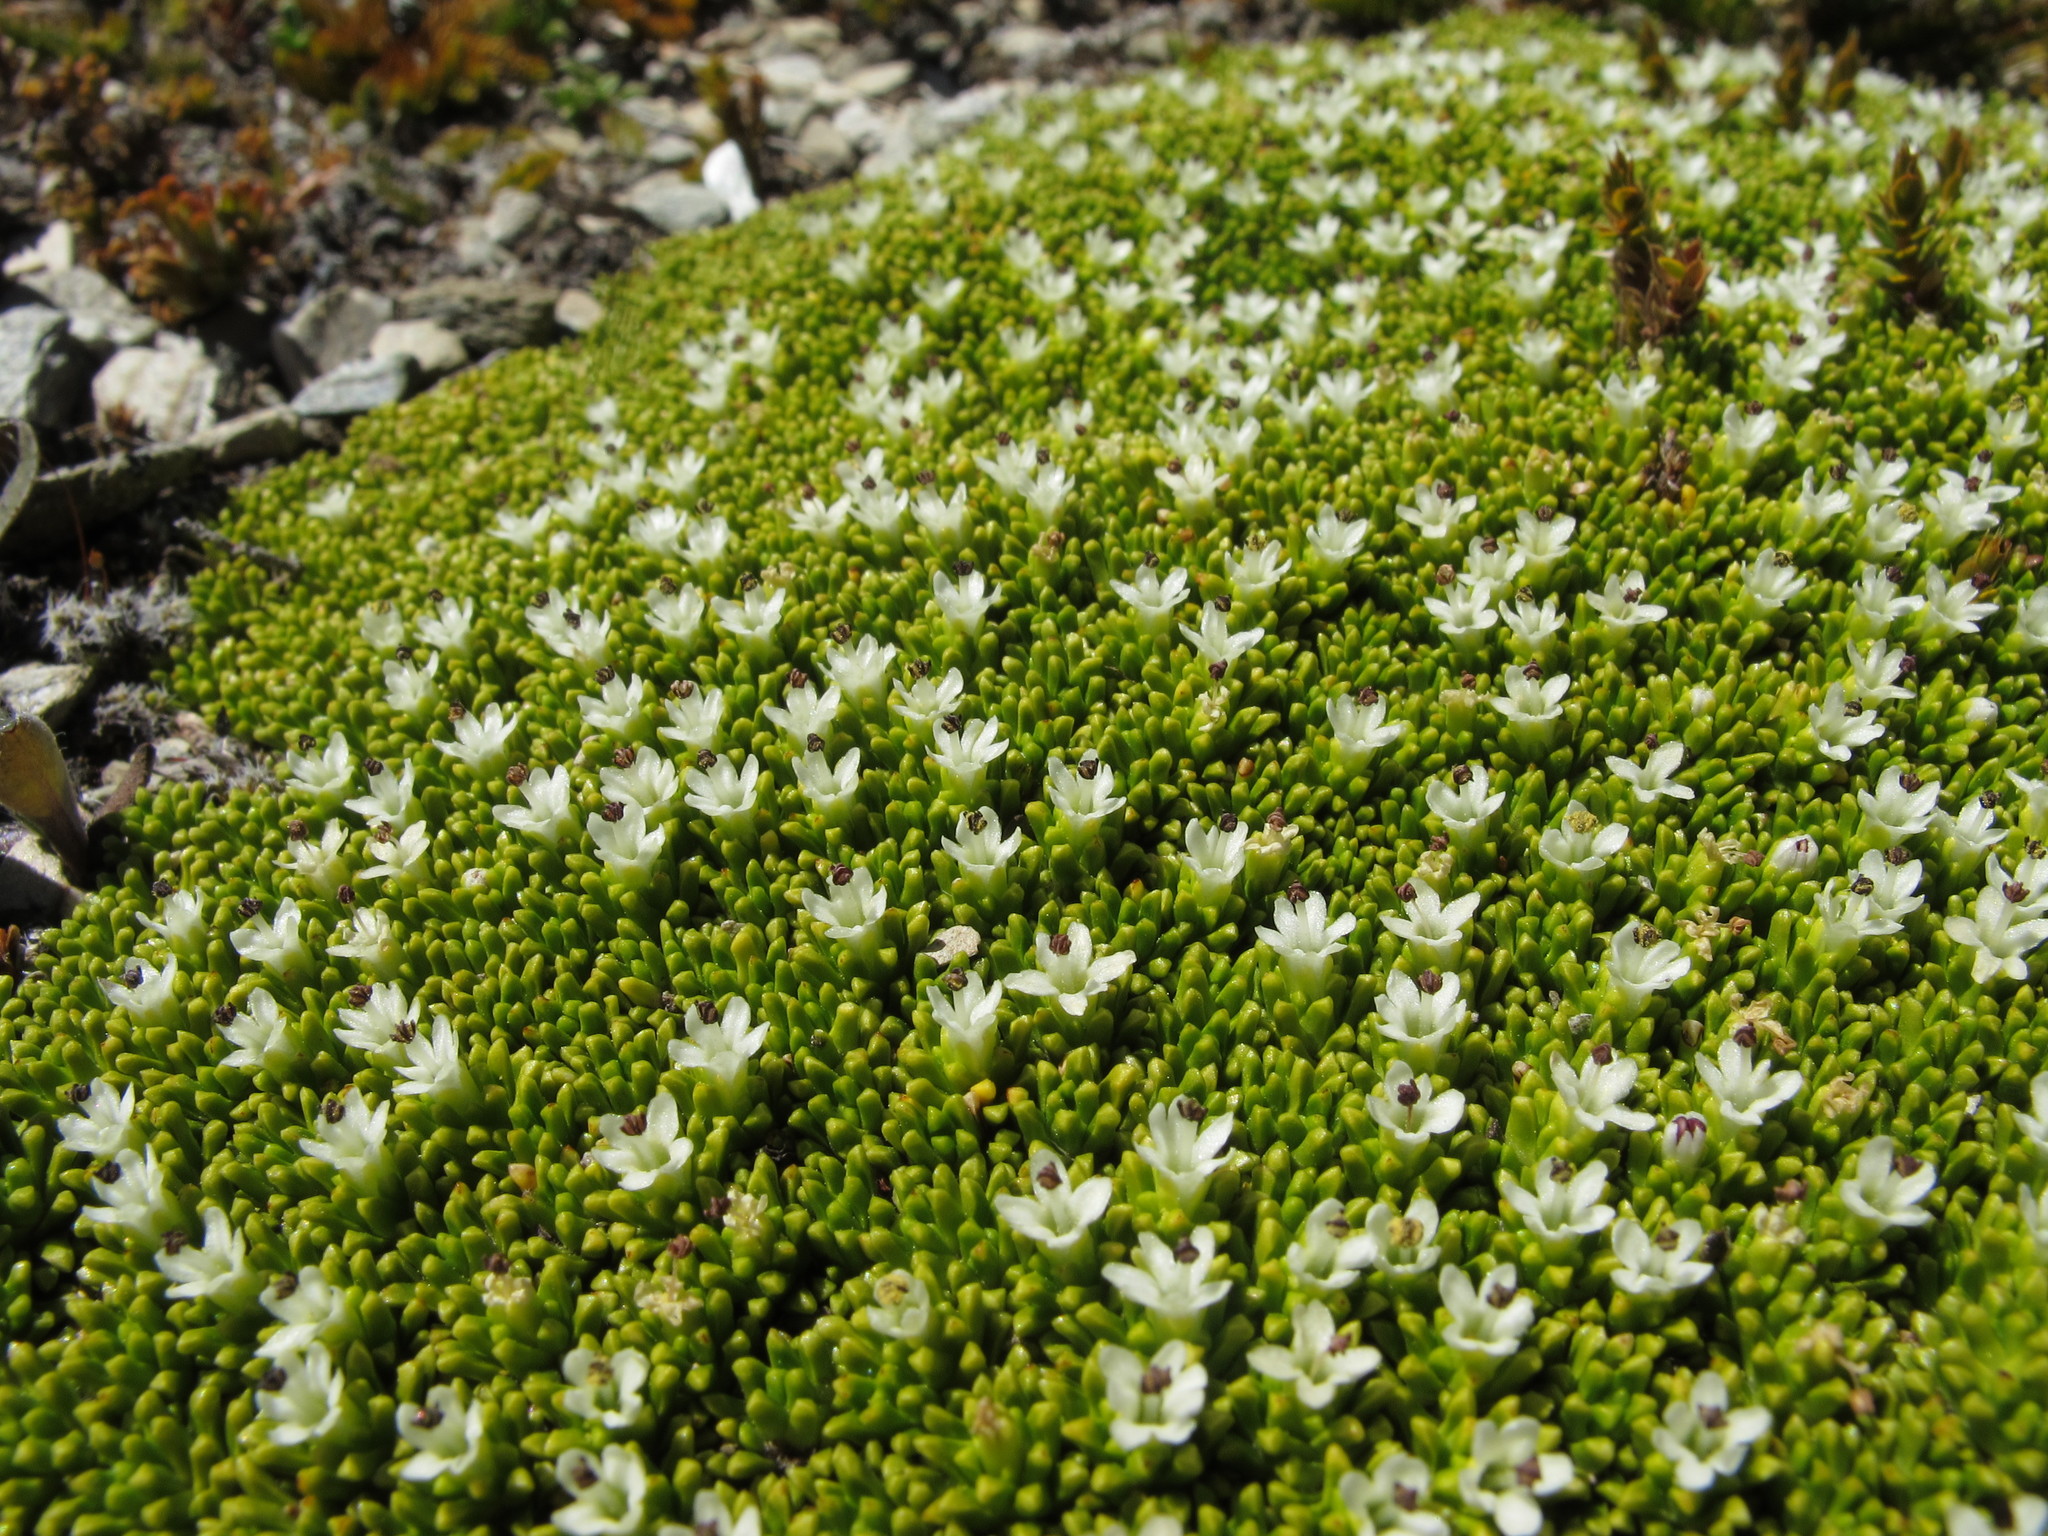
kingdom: Plantae
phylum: Tracheophyta
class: Magnoliopsida
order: Asterales
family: Stylidiaceae
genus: Phyllachne
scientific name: Phyllachne colensoi
